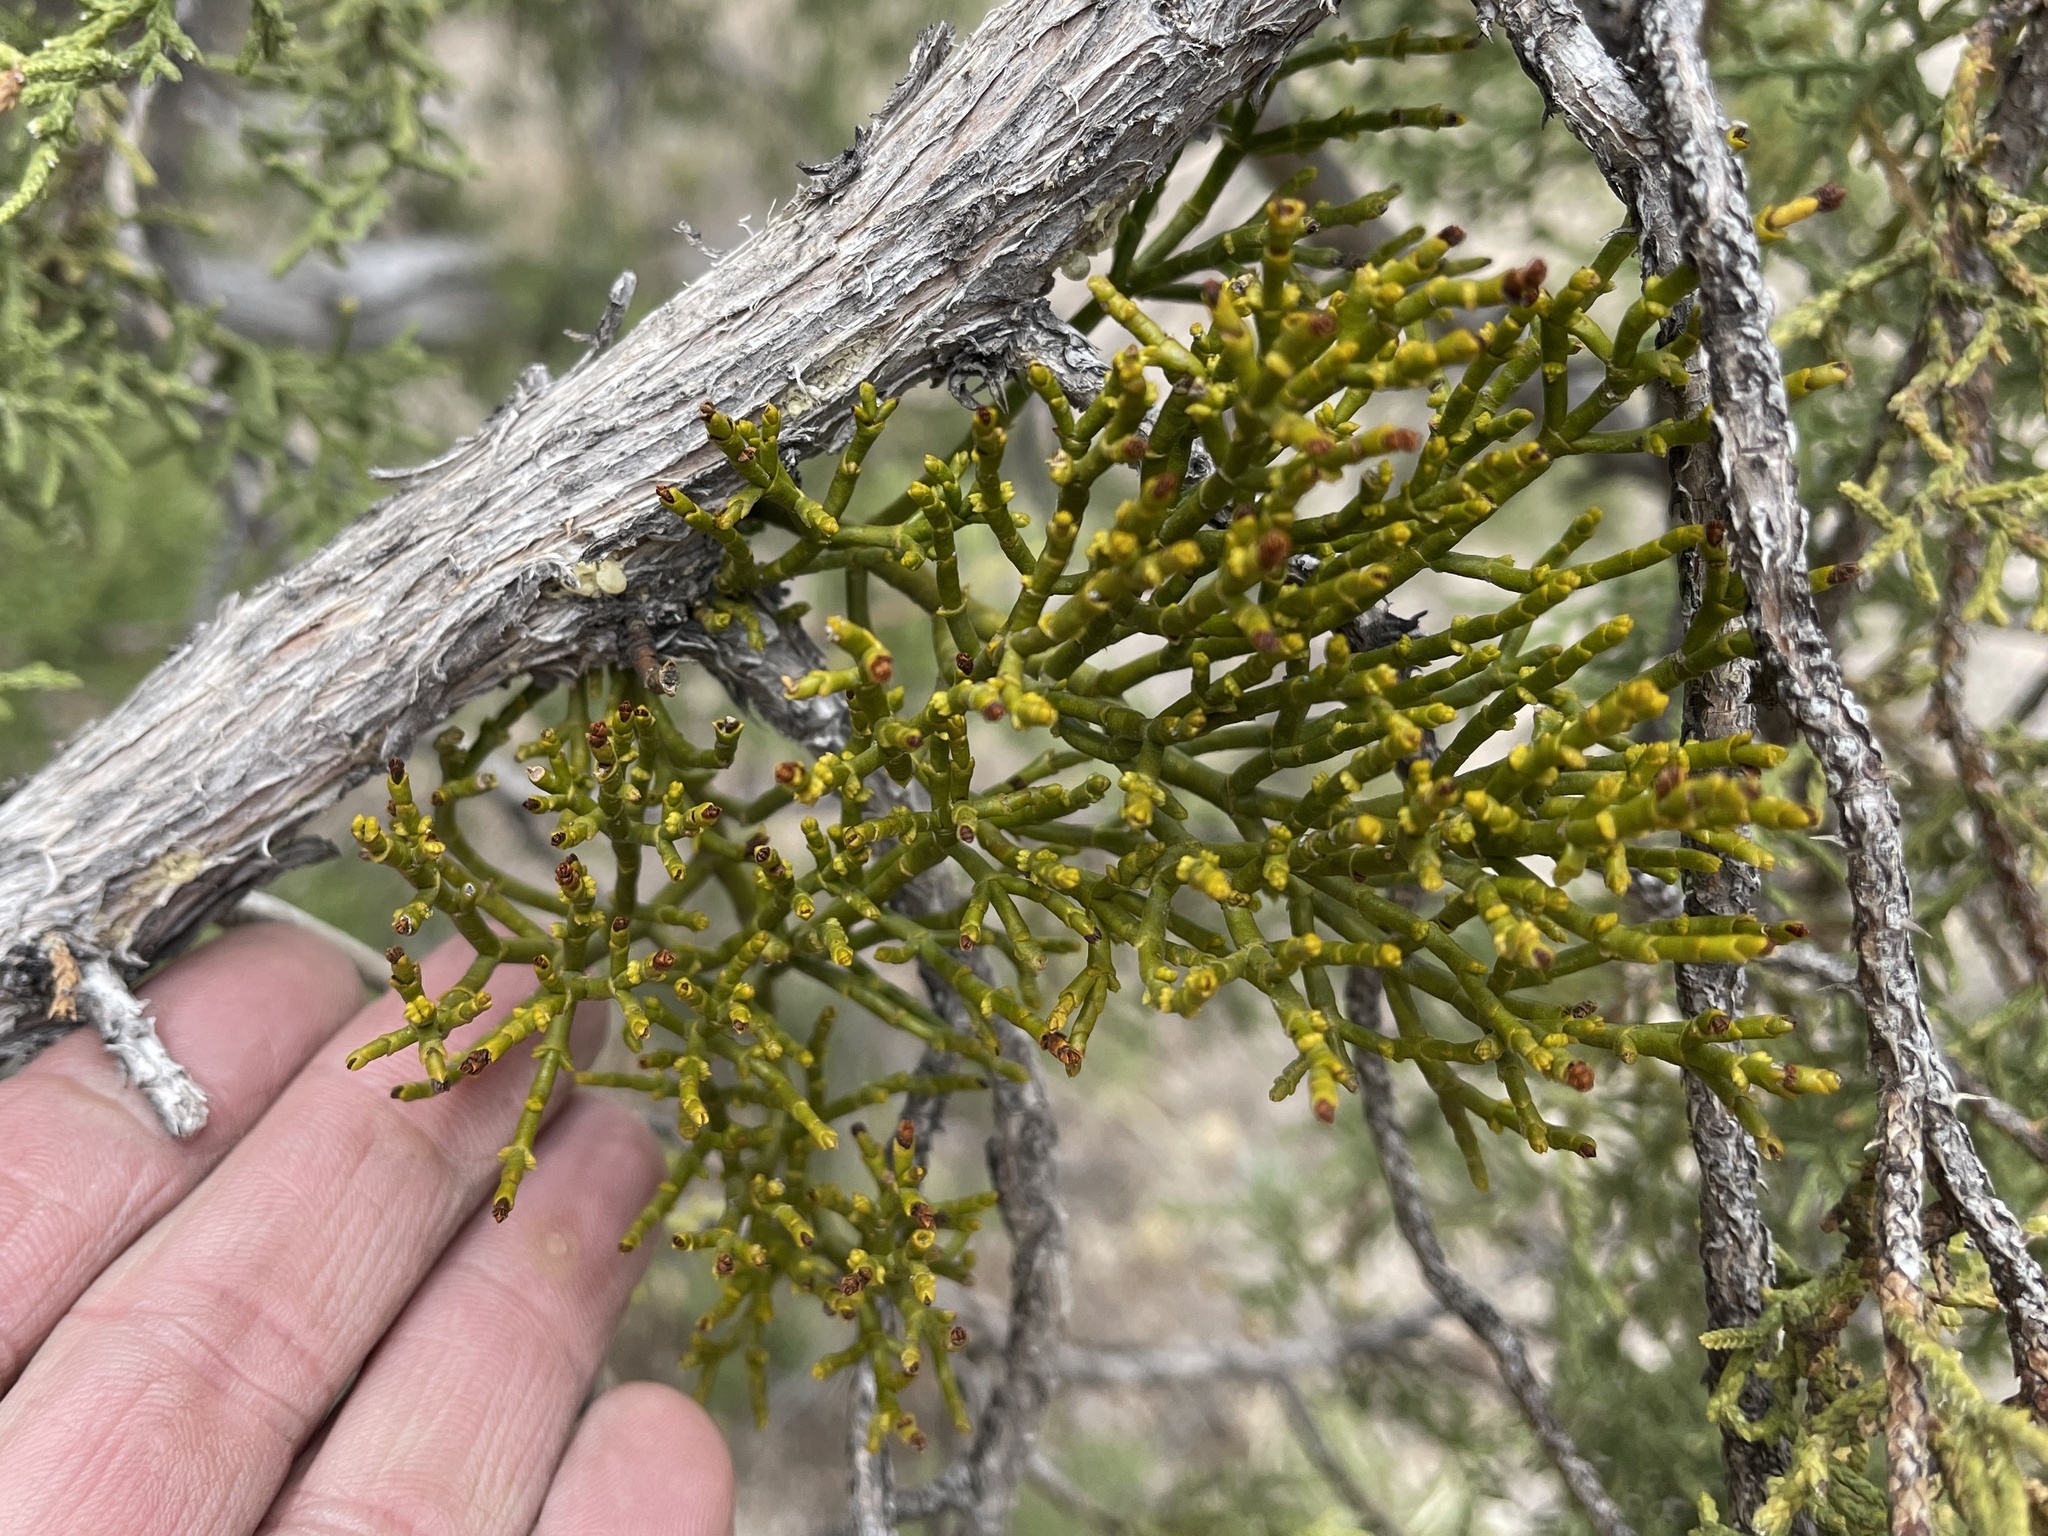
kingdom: Plantae
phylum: Tracheophyta
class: Magnoliopsida
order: Santalales
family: Viscaceae
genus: Phoradendron
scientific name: Phoradendron juniperinum
